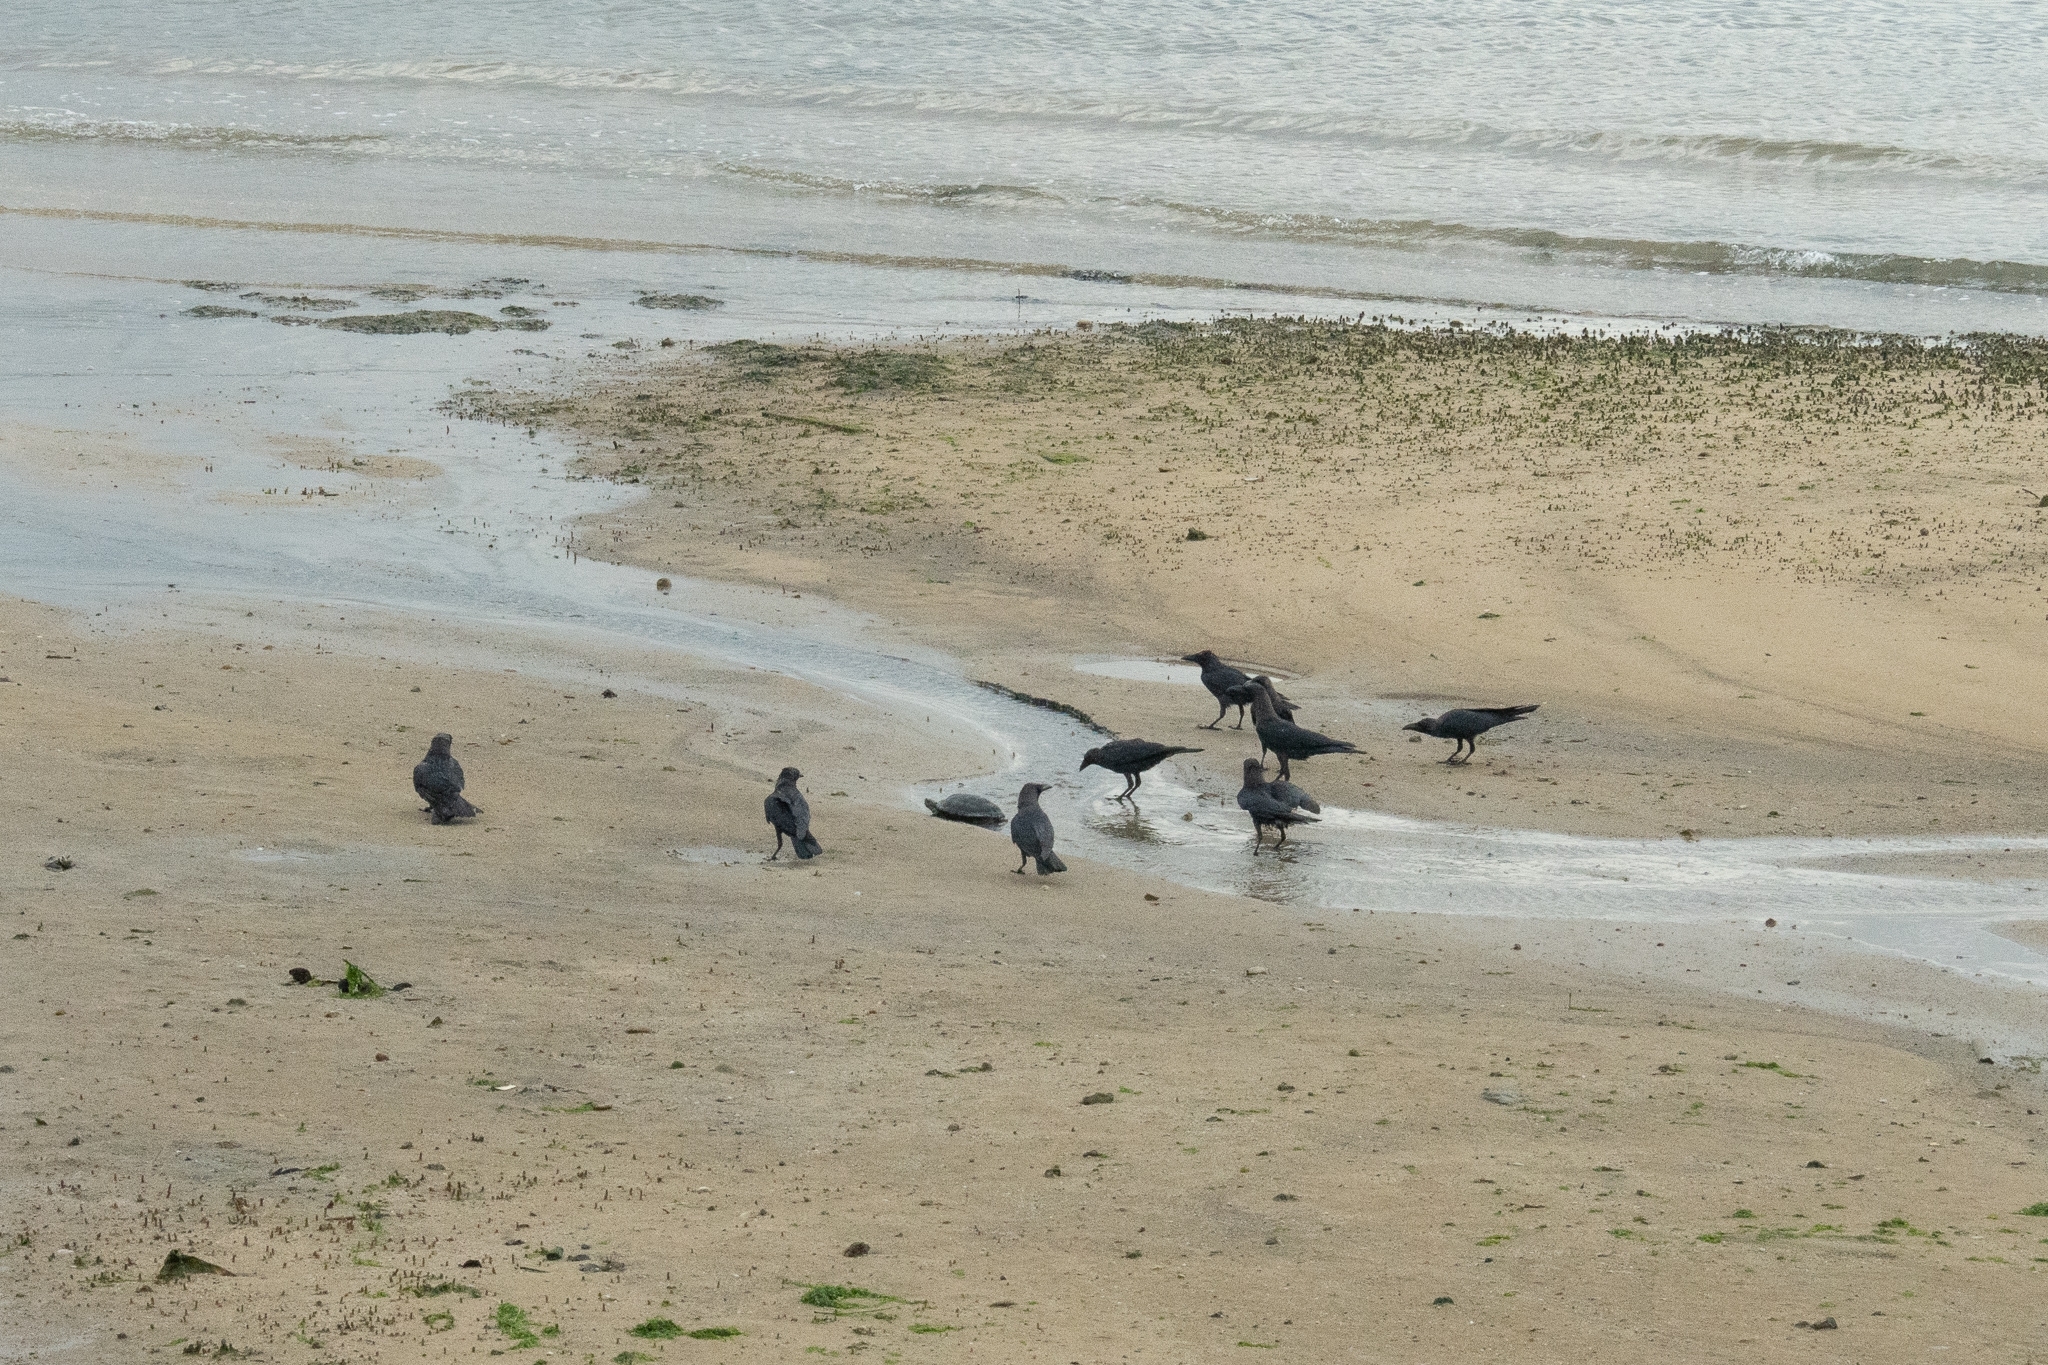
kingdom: Animalia
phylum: Chordata
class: Testudines
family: Emydidae
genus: Trachemys
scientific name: Trachemys scripta
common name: Slider
